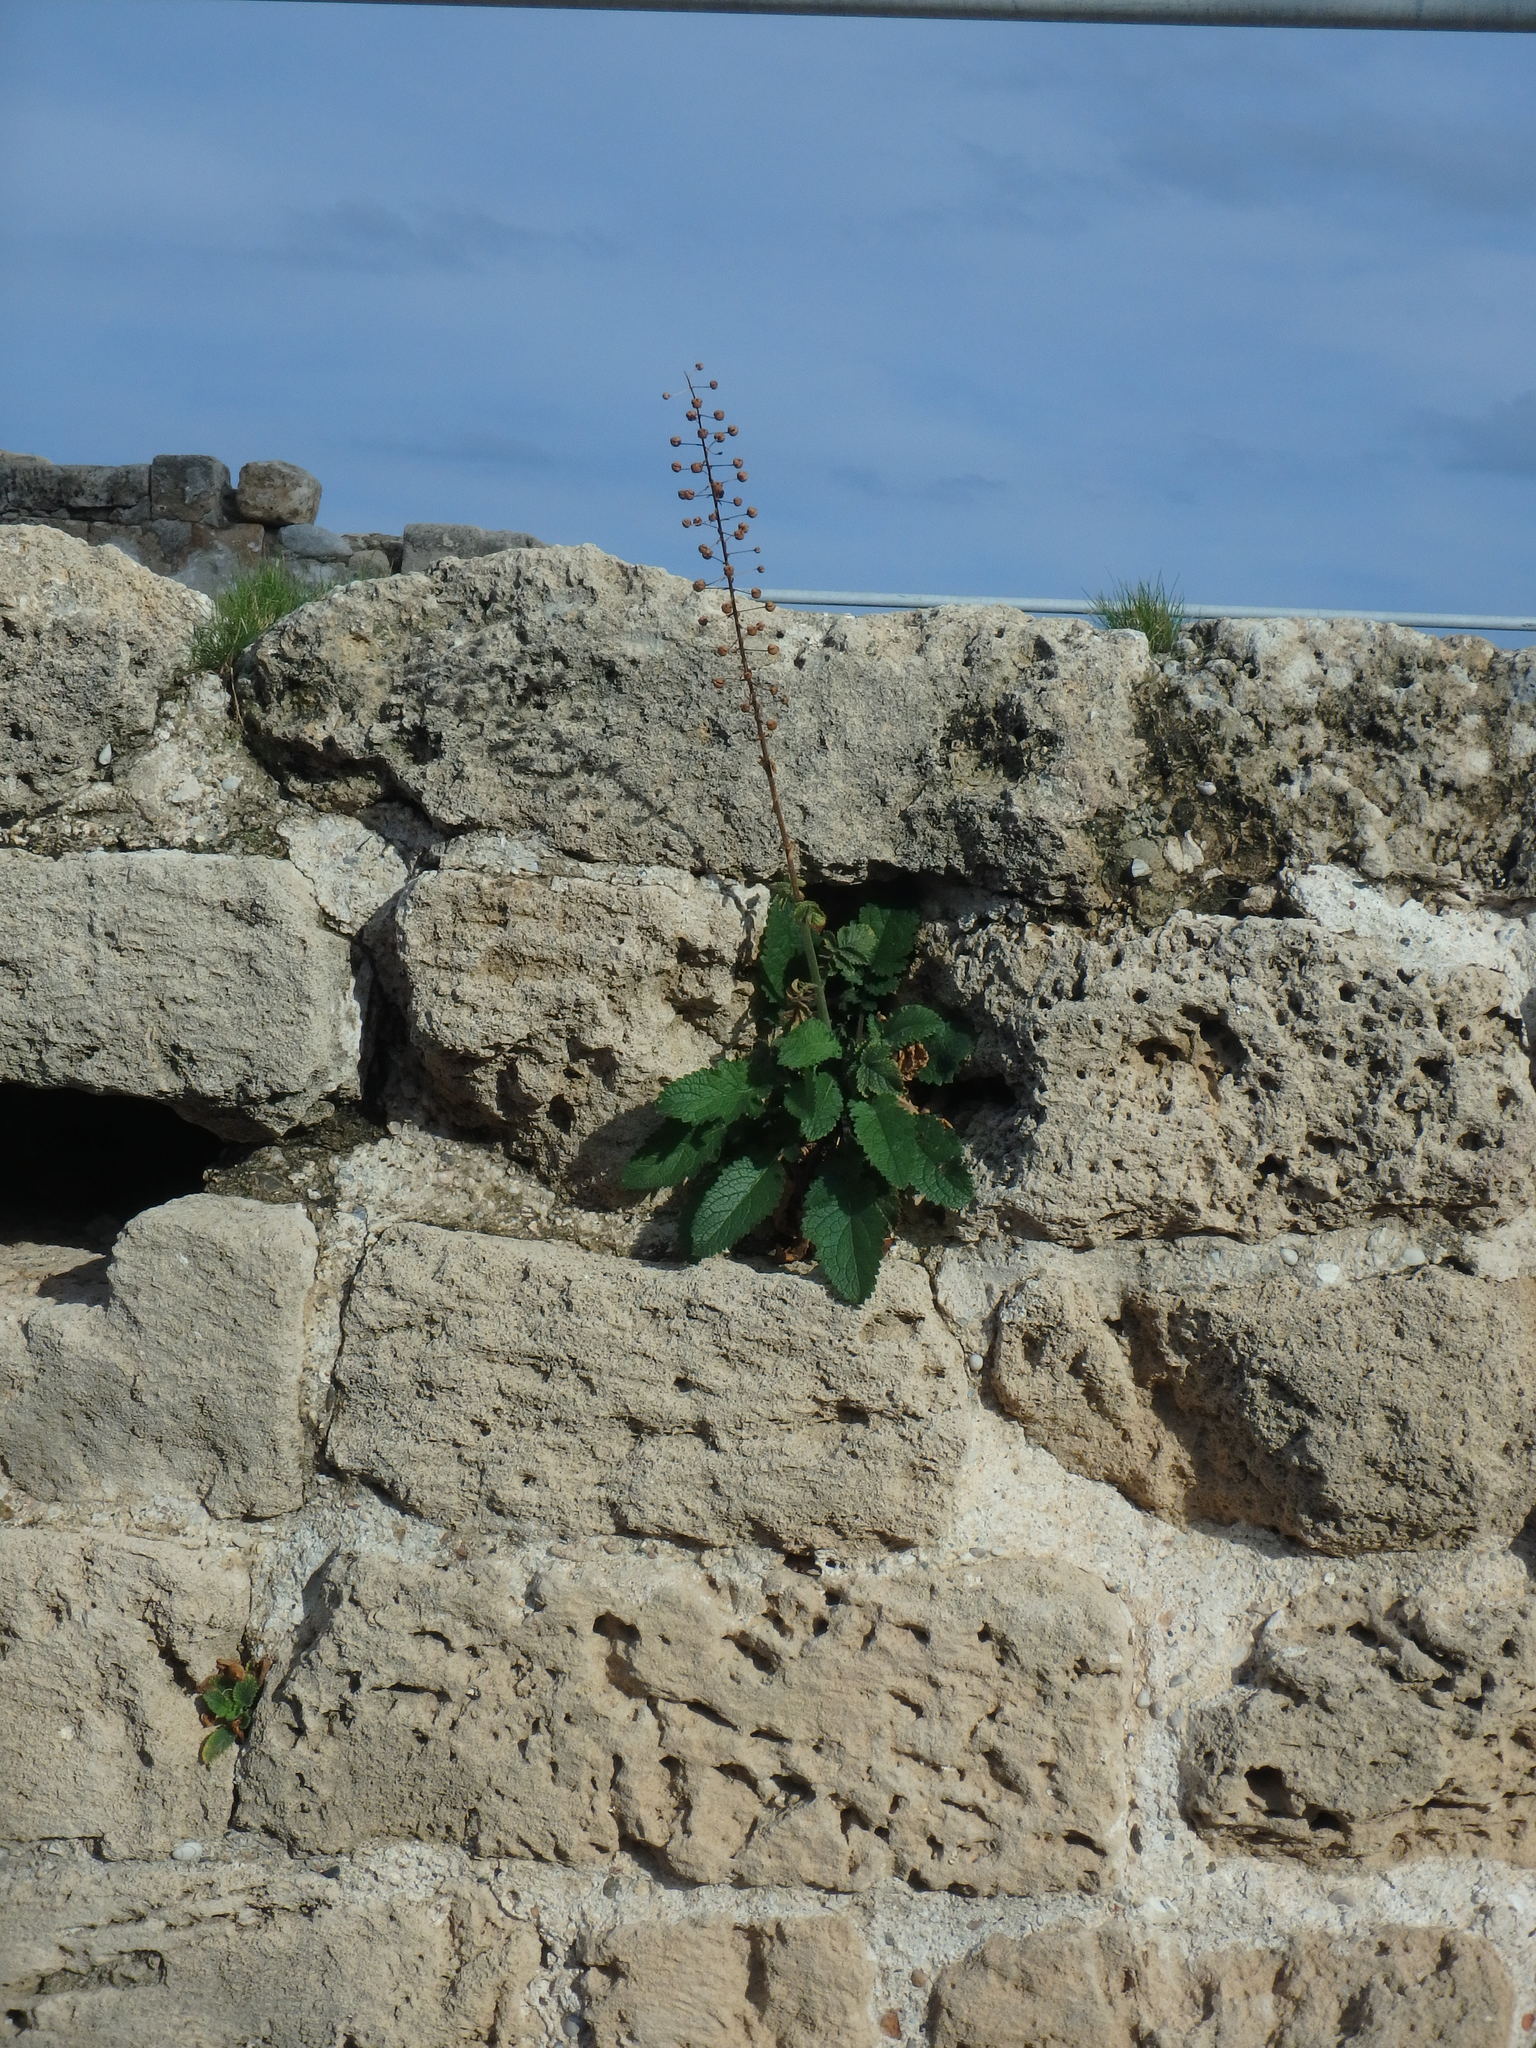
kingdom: Plantae
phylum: Tracheophyta
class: Magnoliopsida
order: Lamiales
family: Scrophulariaceae
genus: Verbascum
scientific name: Verbascum levanticum
